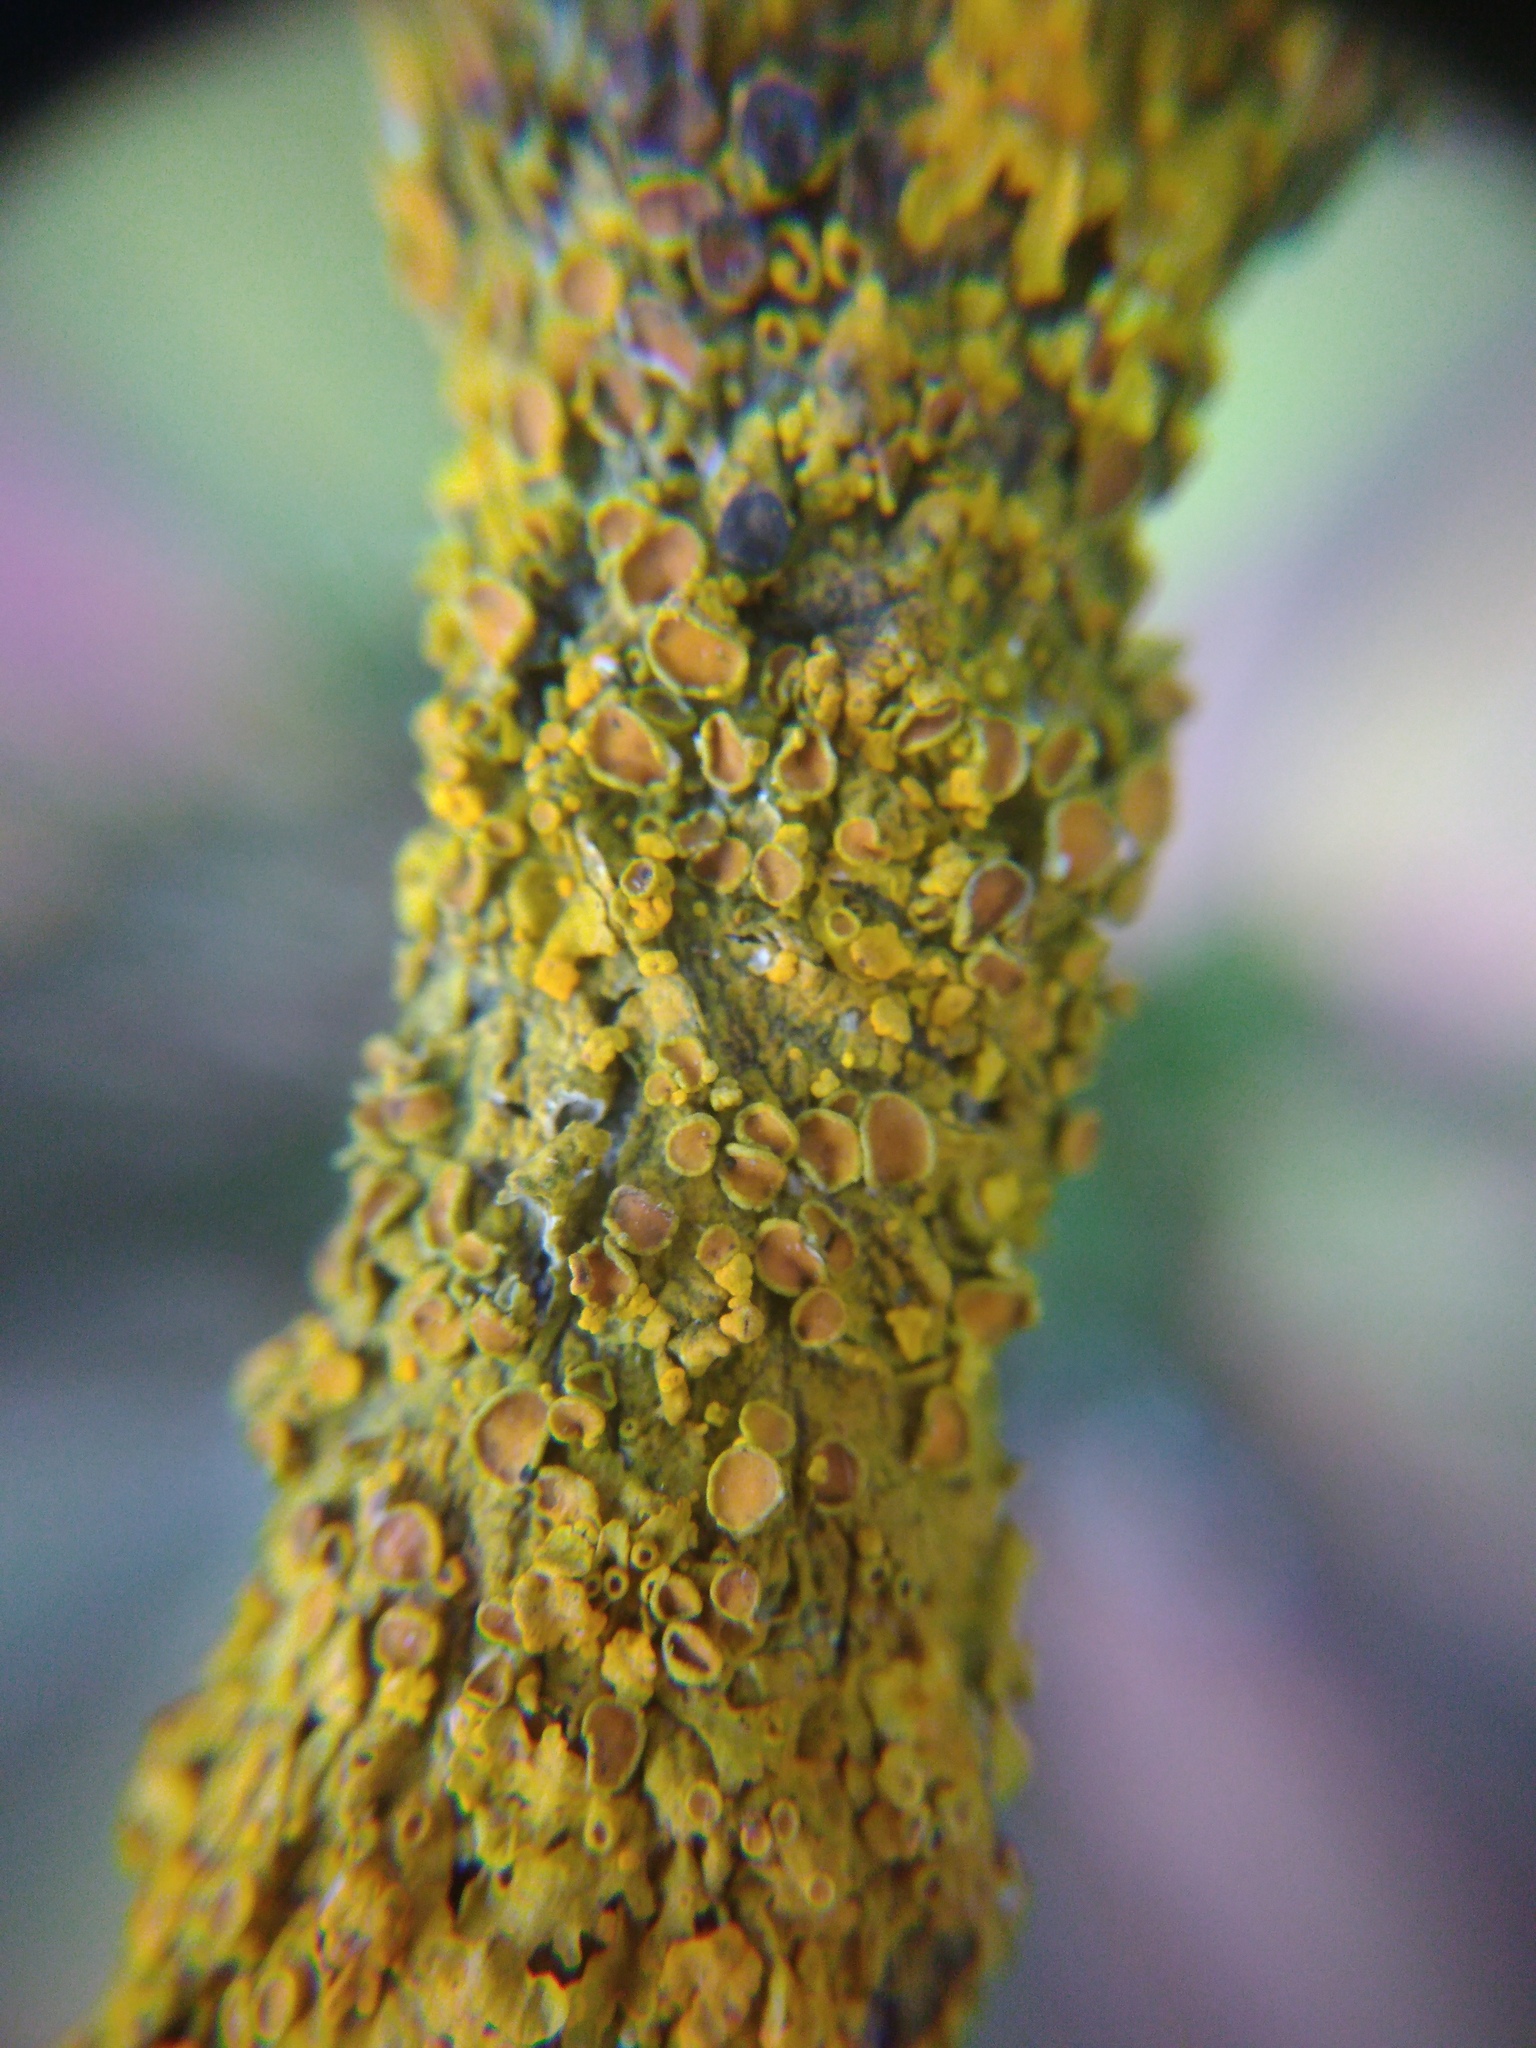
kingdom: Fungi
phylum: Ascomycota
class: Eurotiomycetes
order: Verrucariales
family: Verrucariaceae
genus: Telogalla
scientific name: Telogalla olivieri
